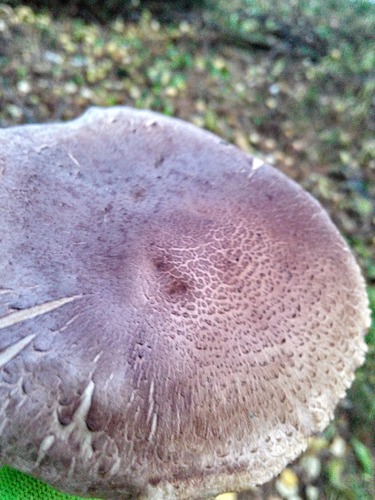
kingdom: Fungi
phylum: Basidiomycota
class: Agaricomycetes
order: Agaricales
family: Tricholomataceae
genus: Tricholoma
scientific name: Tricholoma
